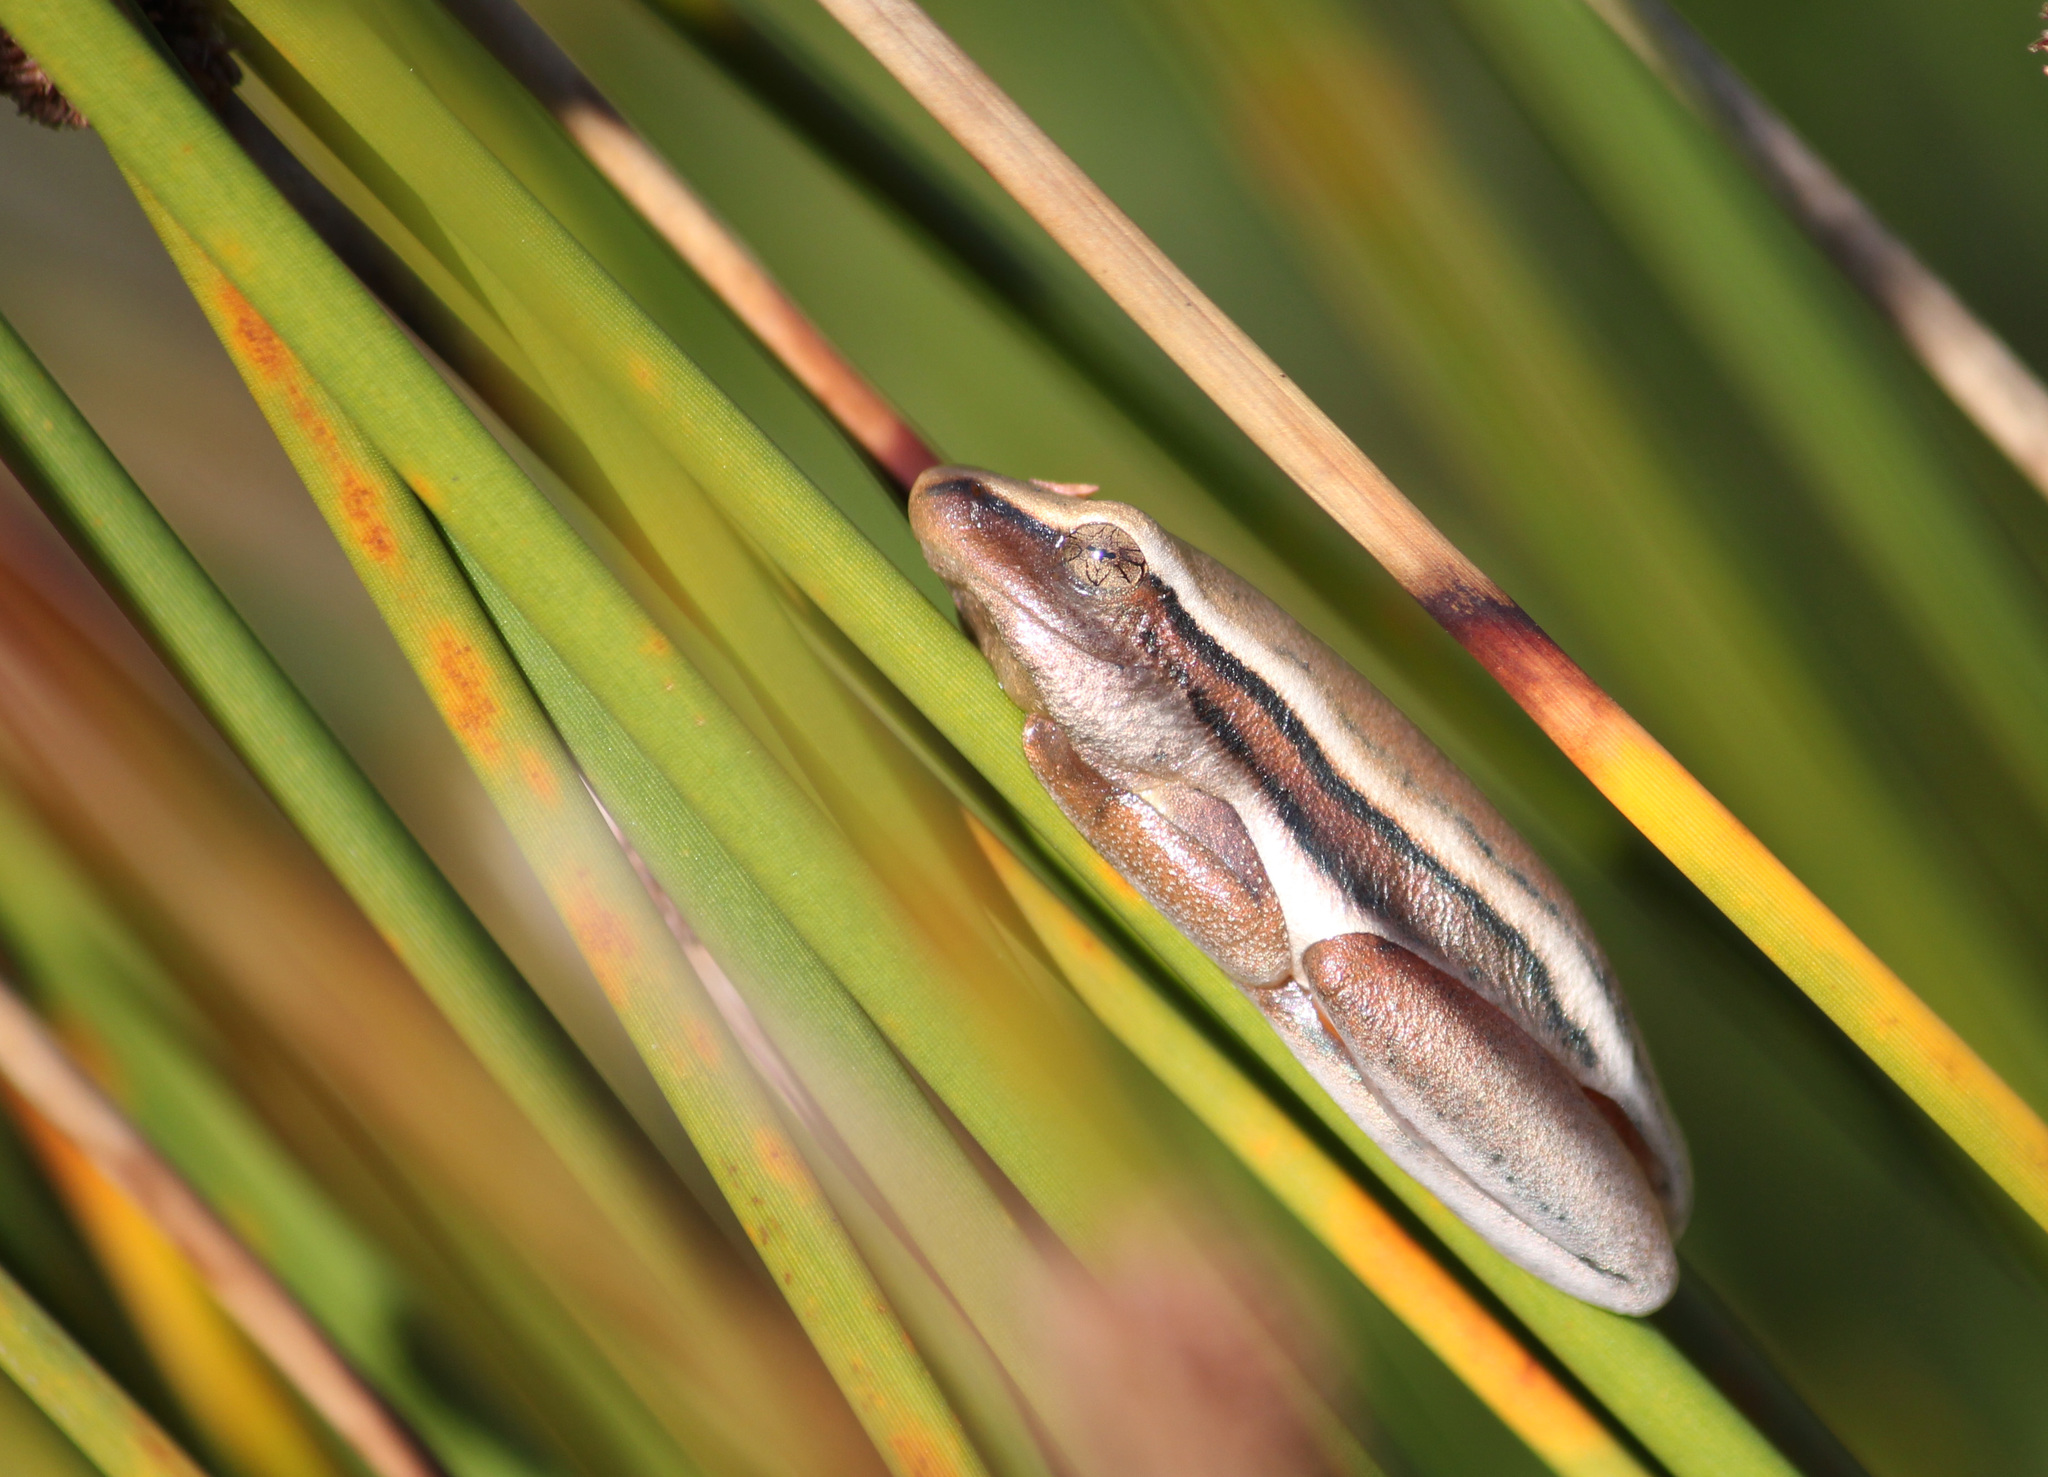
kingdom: Animalia
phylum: Chordata
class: Amphibia
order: Anura
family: Hyperoliidae
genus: Hyperolius
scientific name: Hyperolius horstockii
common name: Arum lily frog
